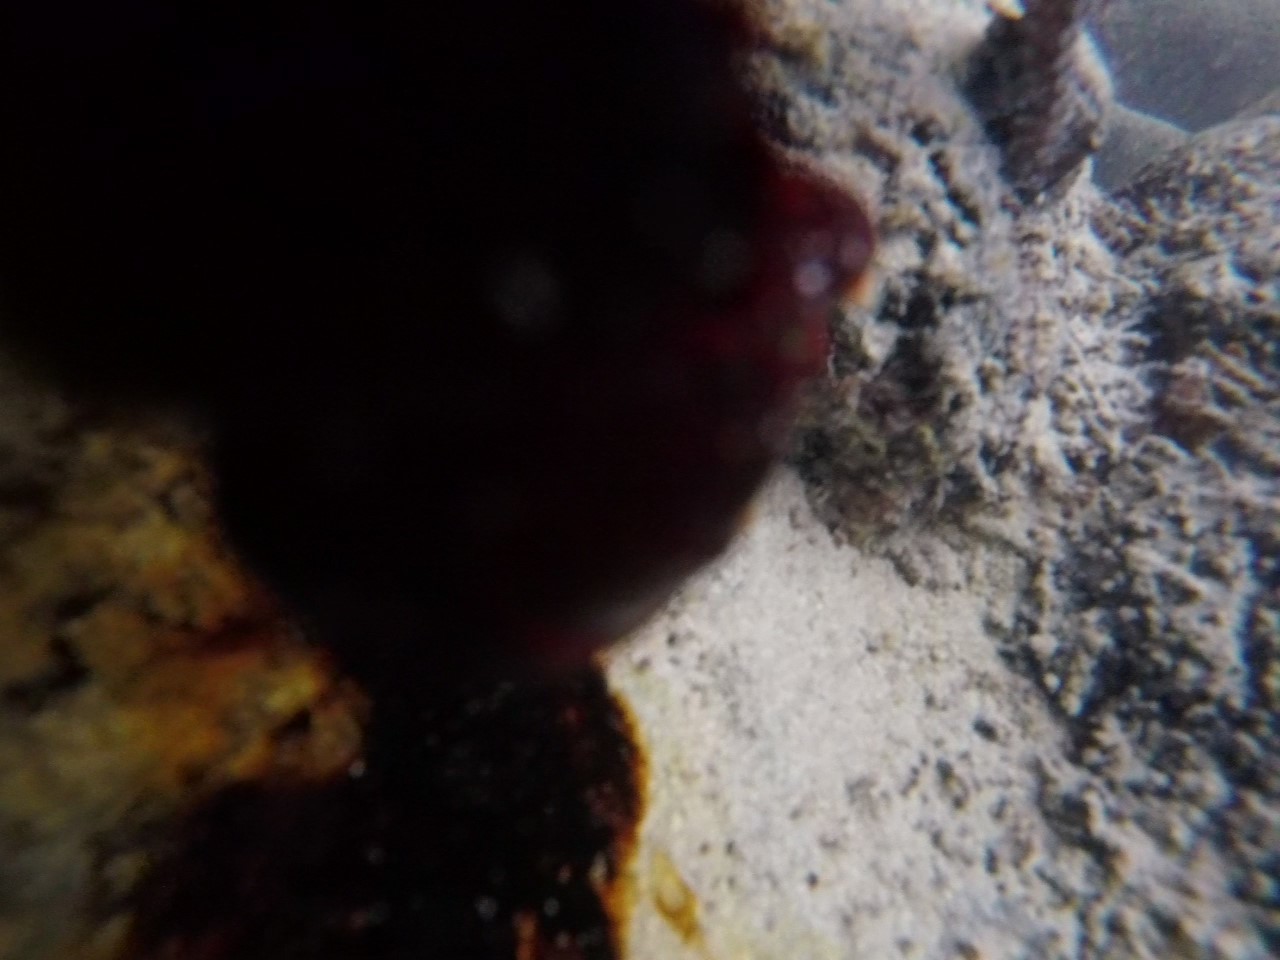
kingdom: Animalia
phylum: Arthropoda
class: Malacostraca
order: Decapoda
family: Grapsidae
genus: Grapsus
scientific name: Grapsus grapsus
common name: Sally lightfoot
